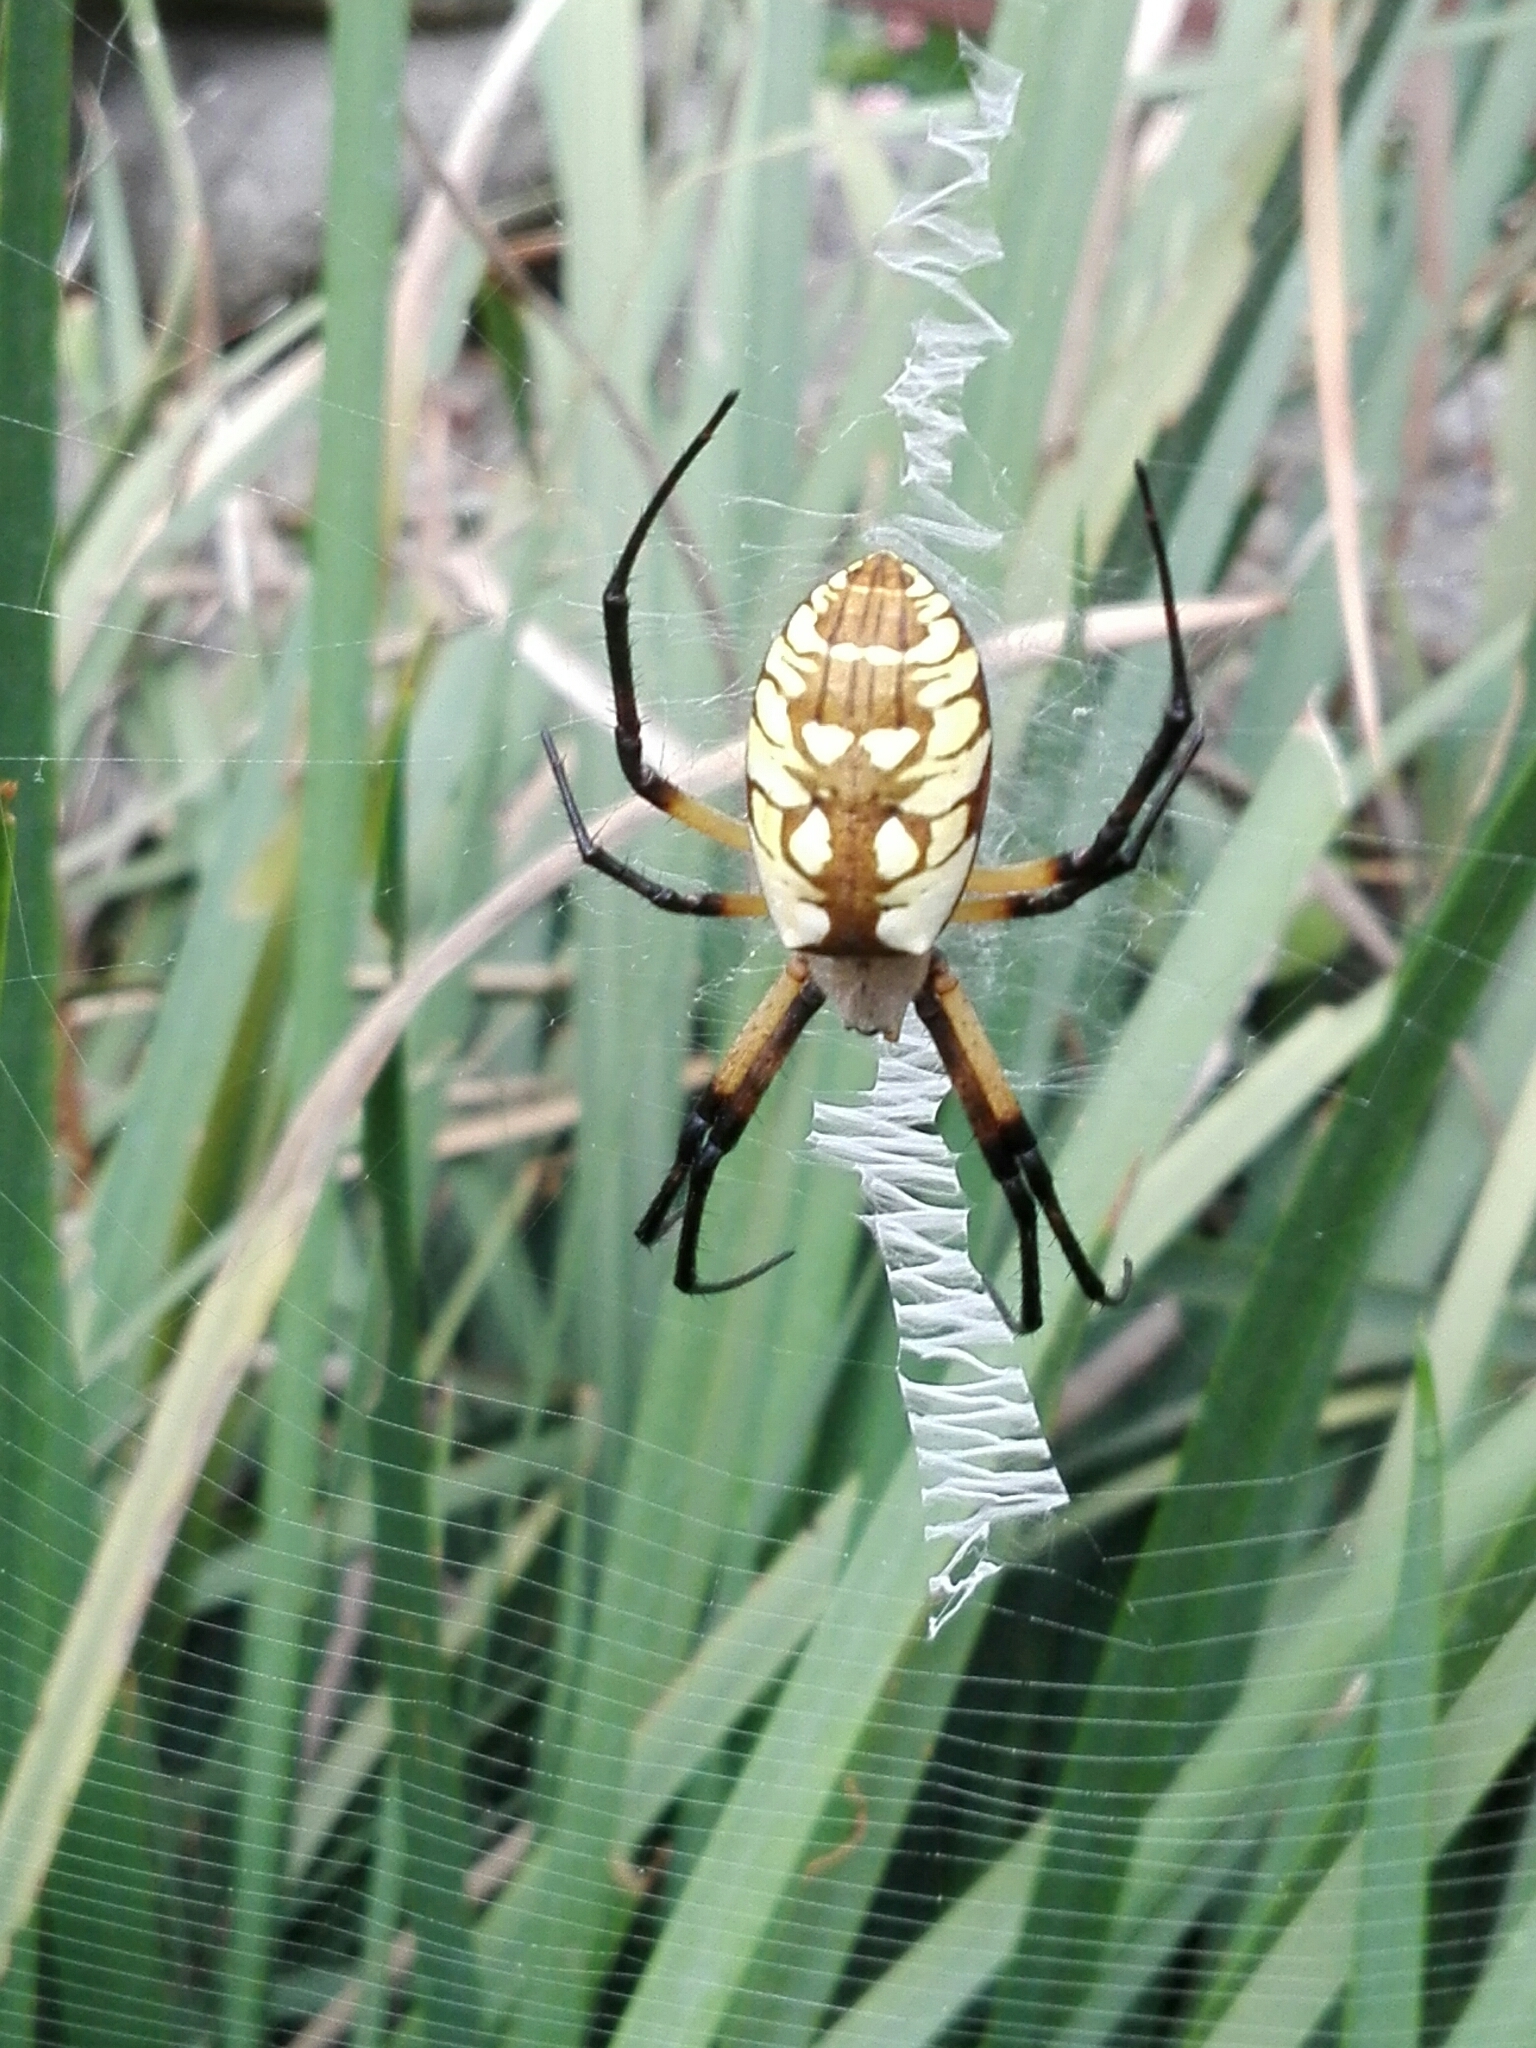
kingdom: Animalia
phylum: Arthropoda
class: Arachnida
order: Araneae
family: Araneidae
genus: Argiope
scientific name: Argiope aurantia
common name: Orb weavers
